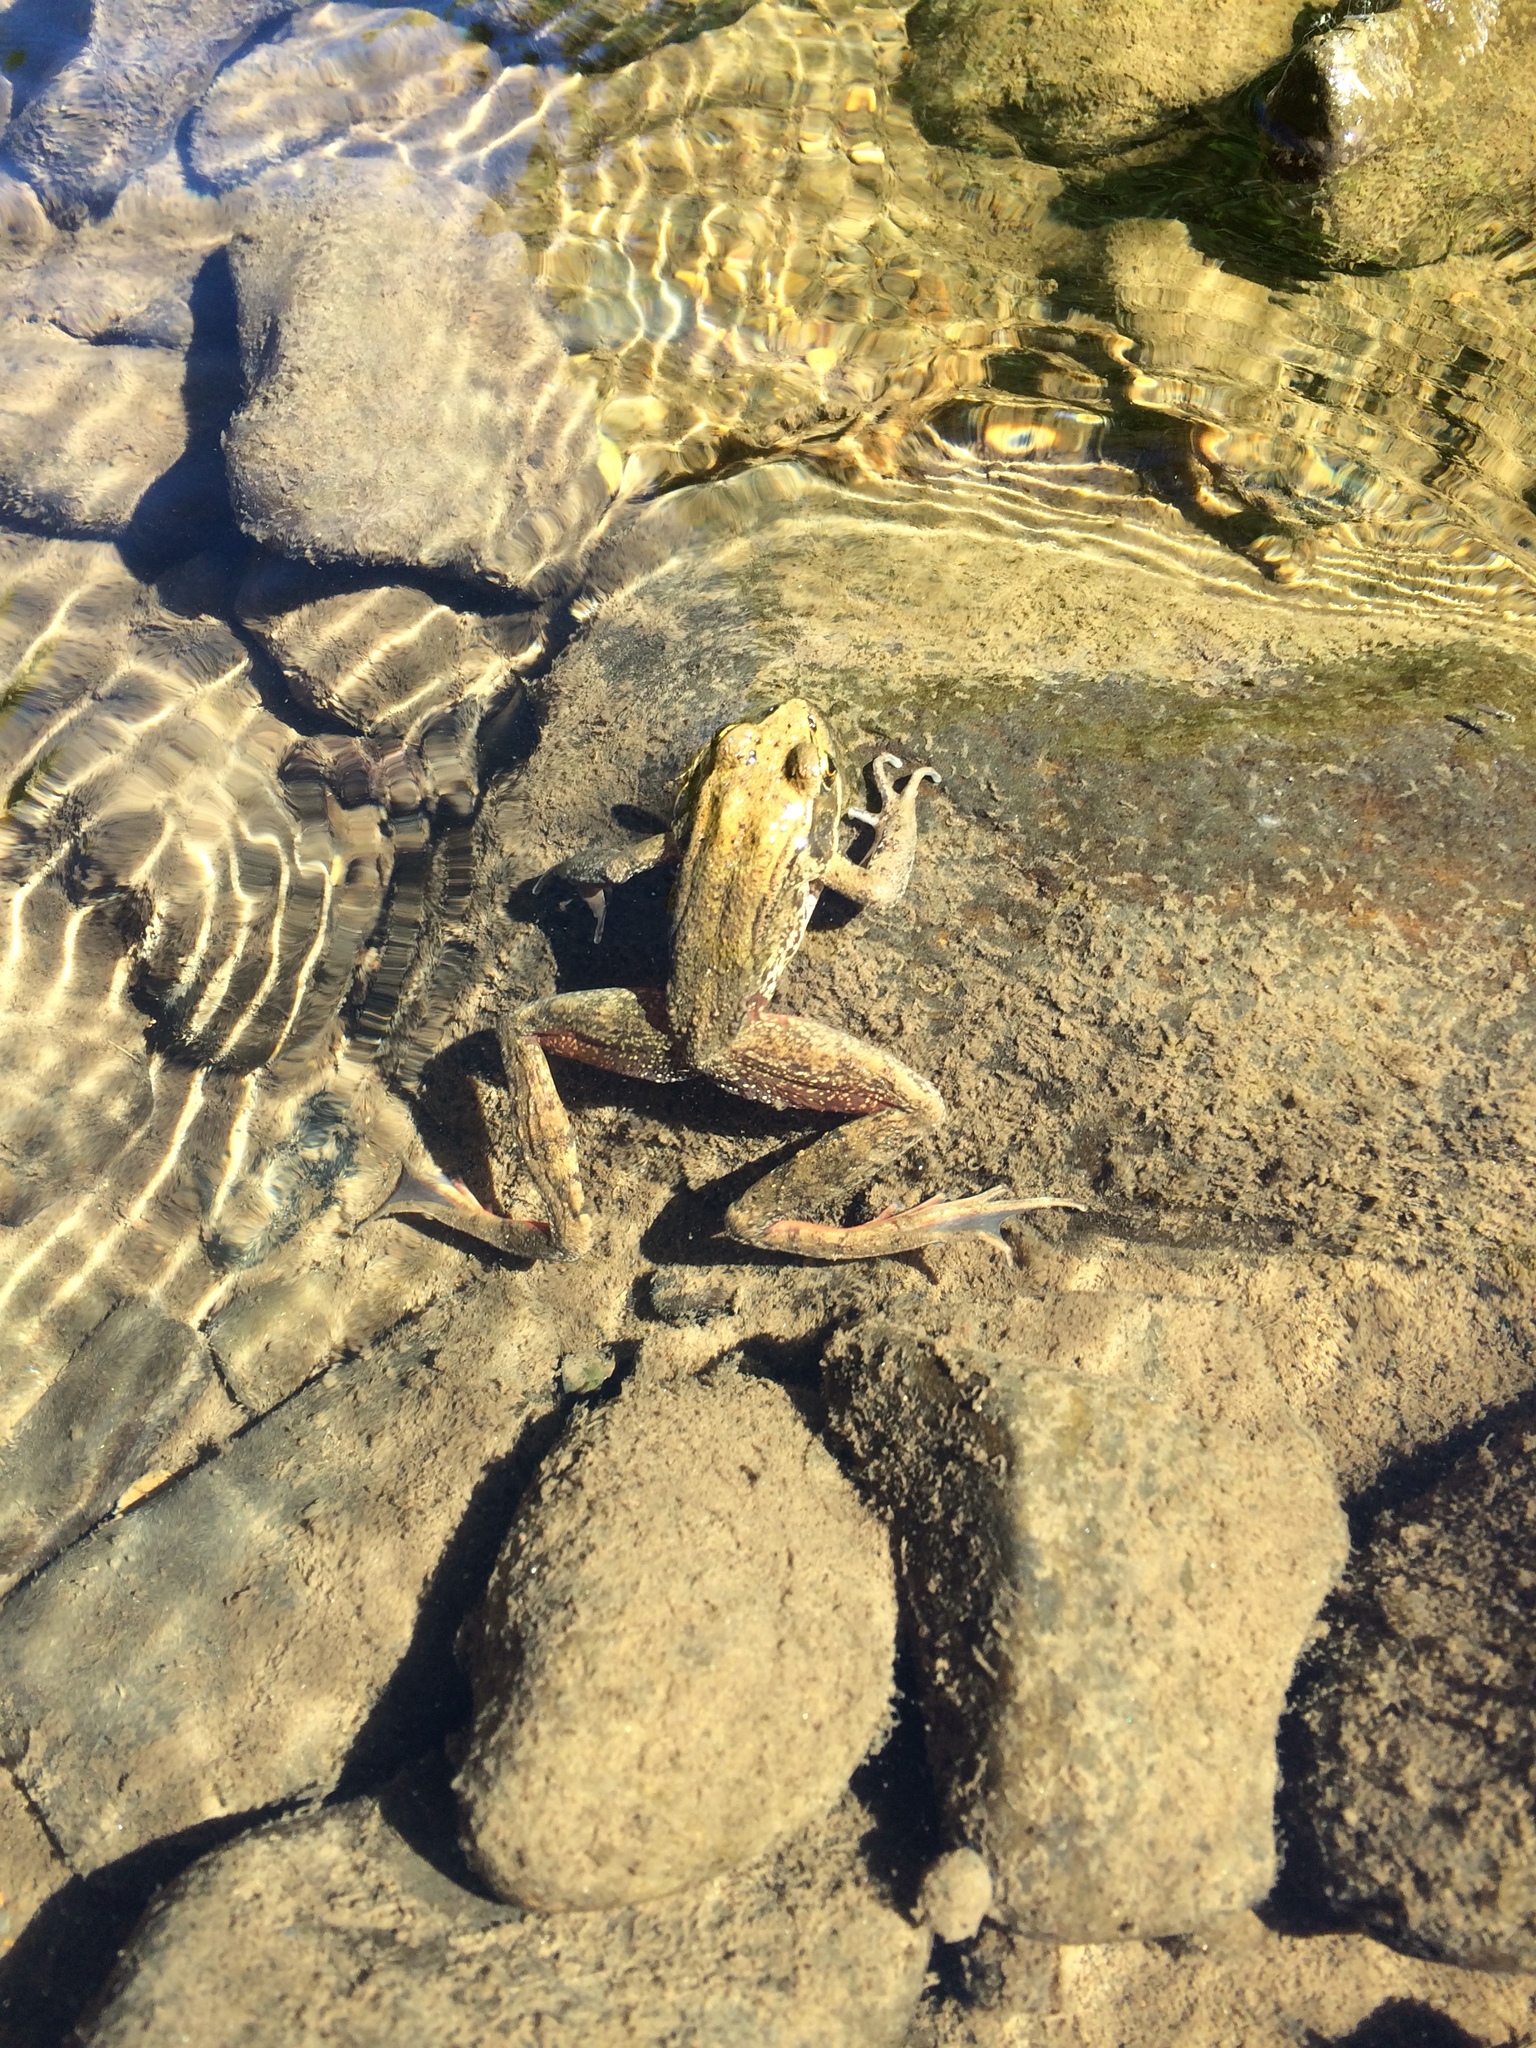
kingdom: Animalia
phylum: Chordata
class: Amphibia
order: Anura
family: Ranidae
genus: Rana
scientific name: Rana aurora
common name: Red-legged frog
